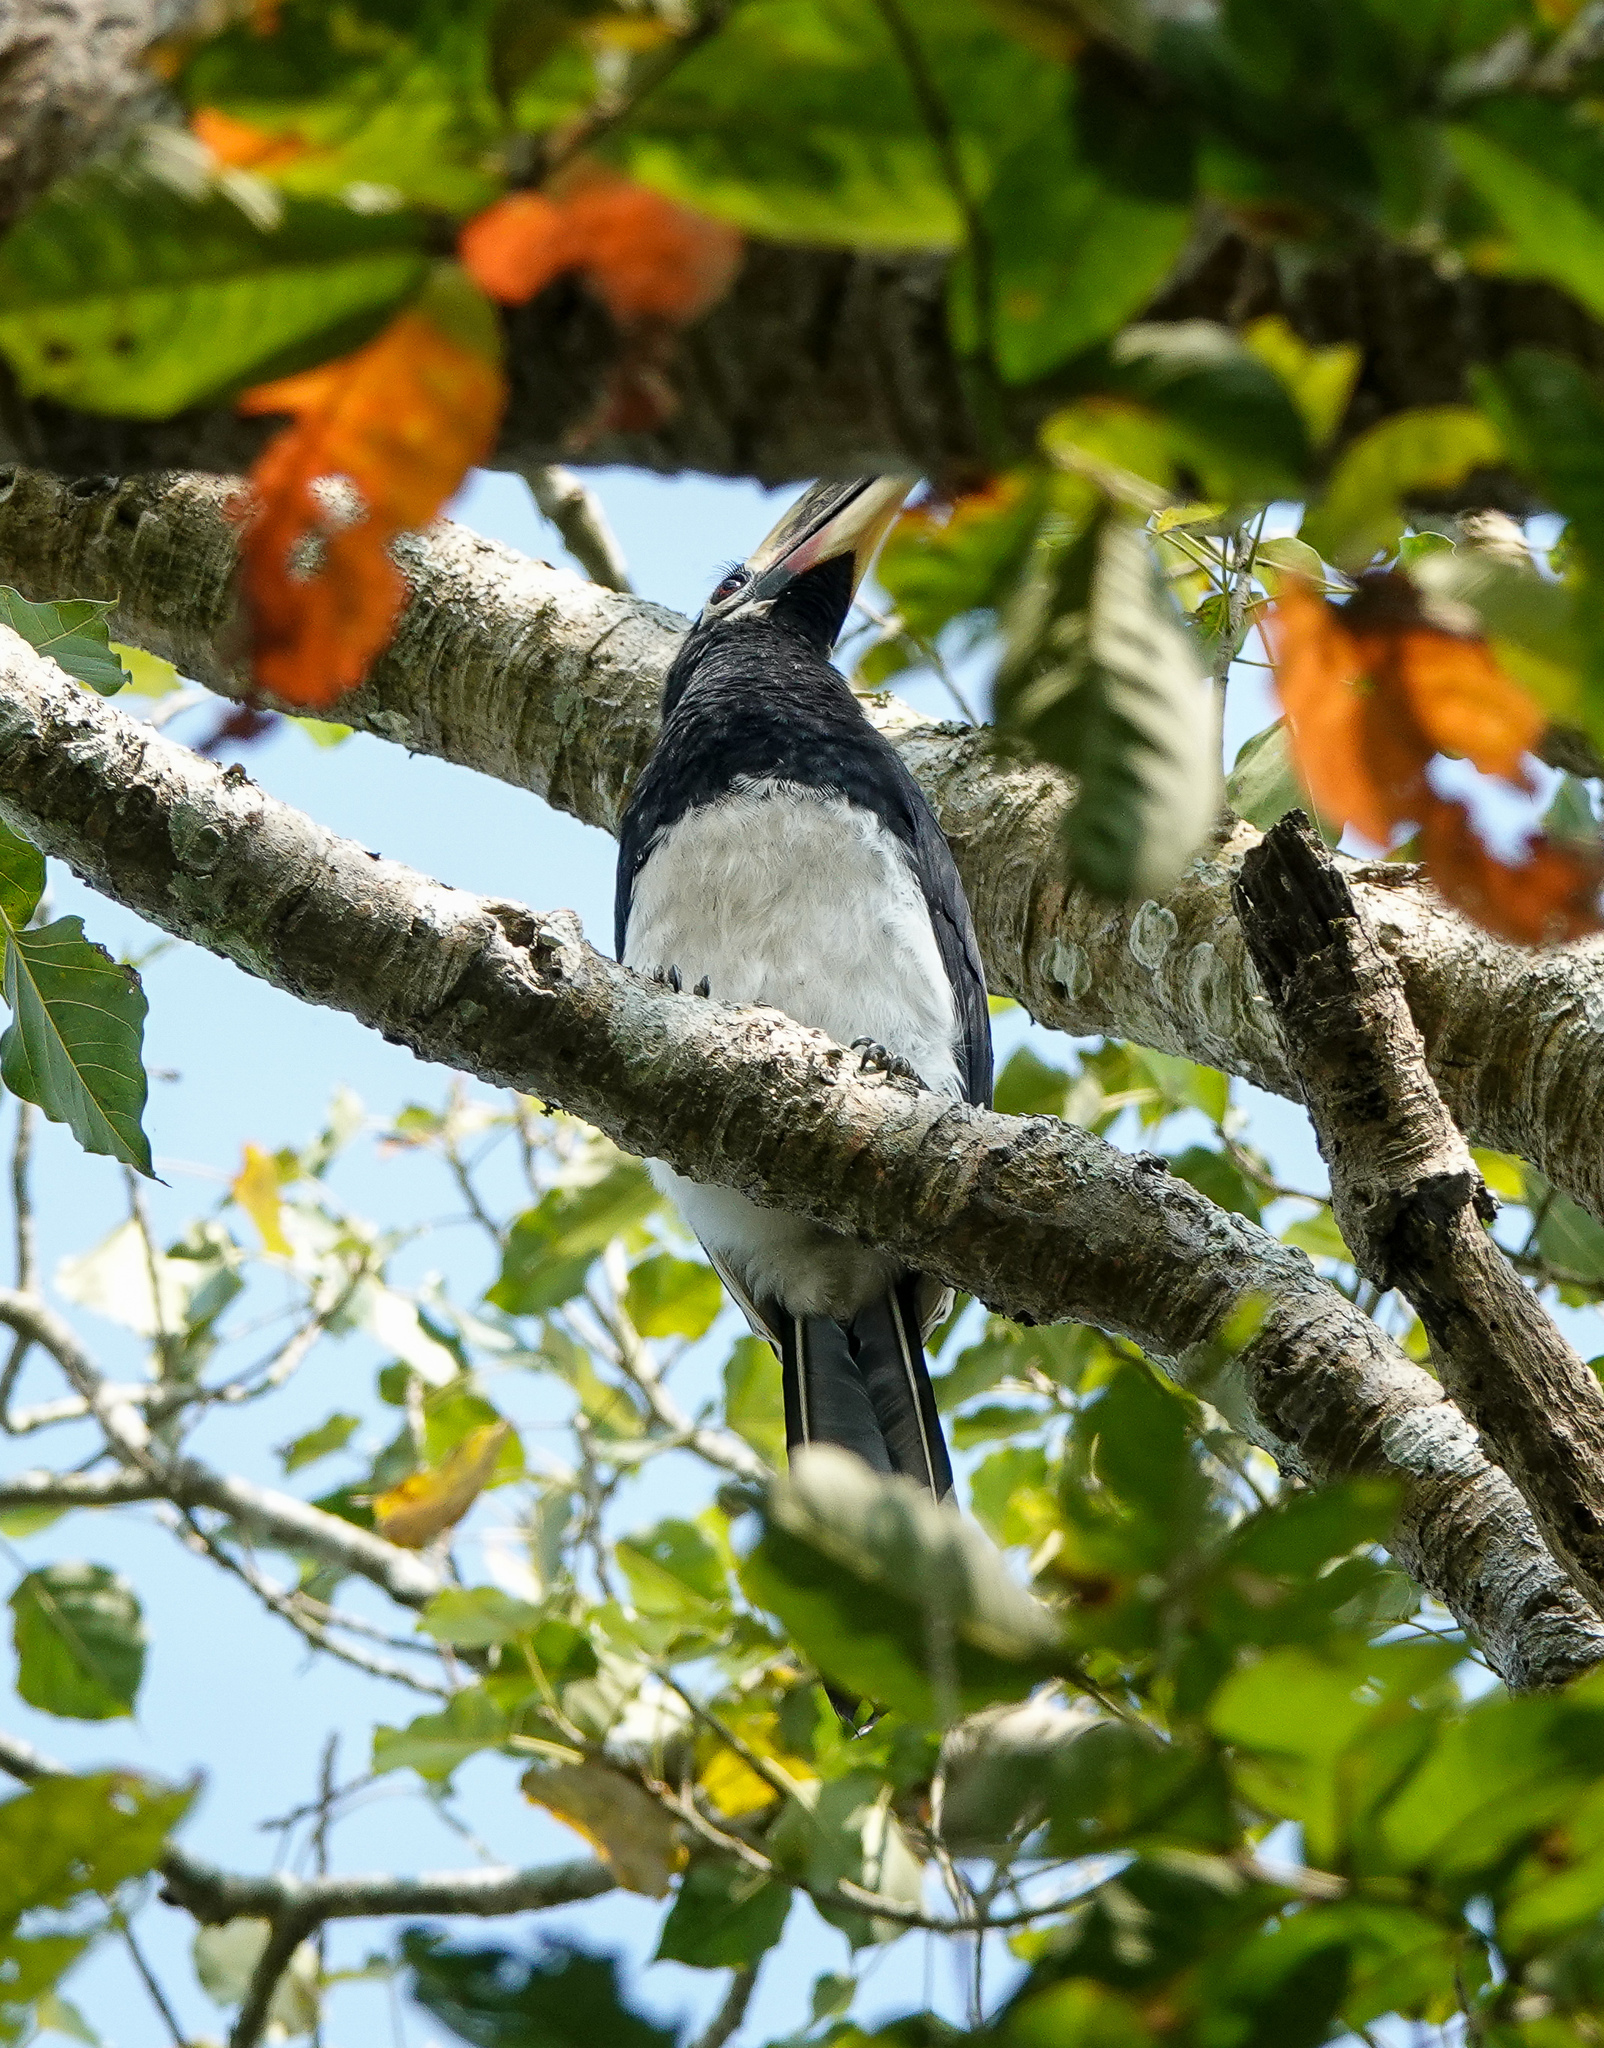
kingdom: Animalia
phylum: Chordata
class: Aves
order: Bucerotiformes
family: Bucerotidae
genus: Anthracoceros
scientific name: Anthracoceros albirostris
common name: Oriental pied-hornbill
